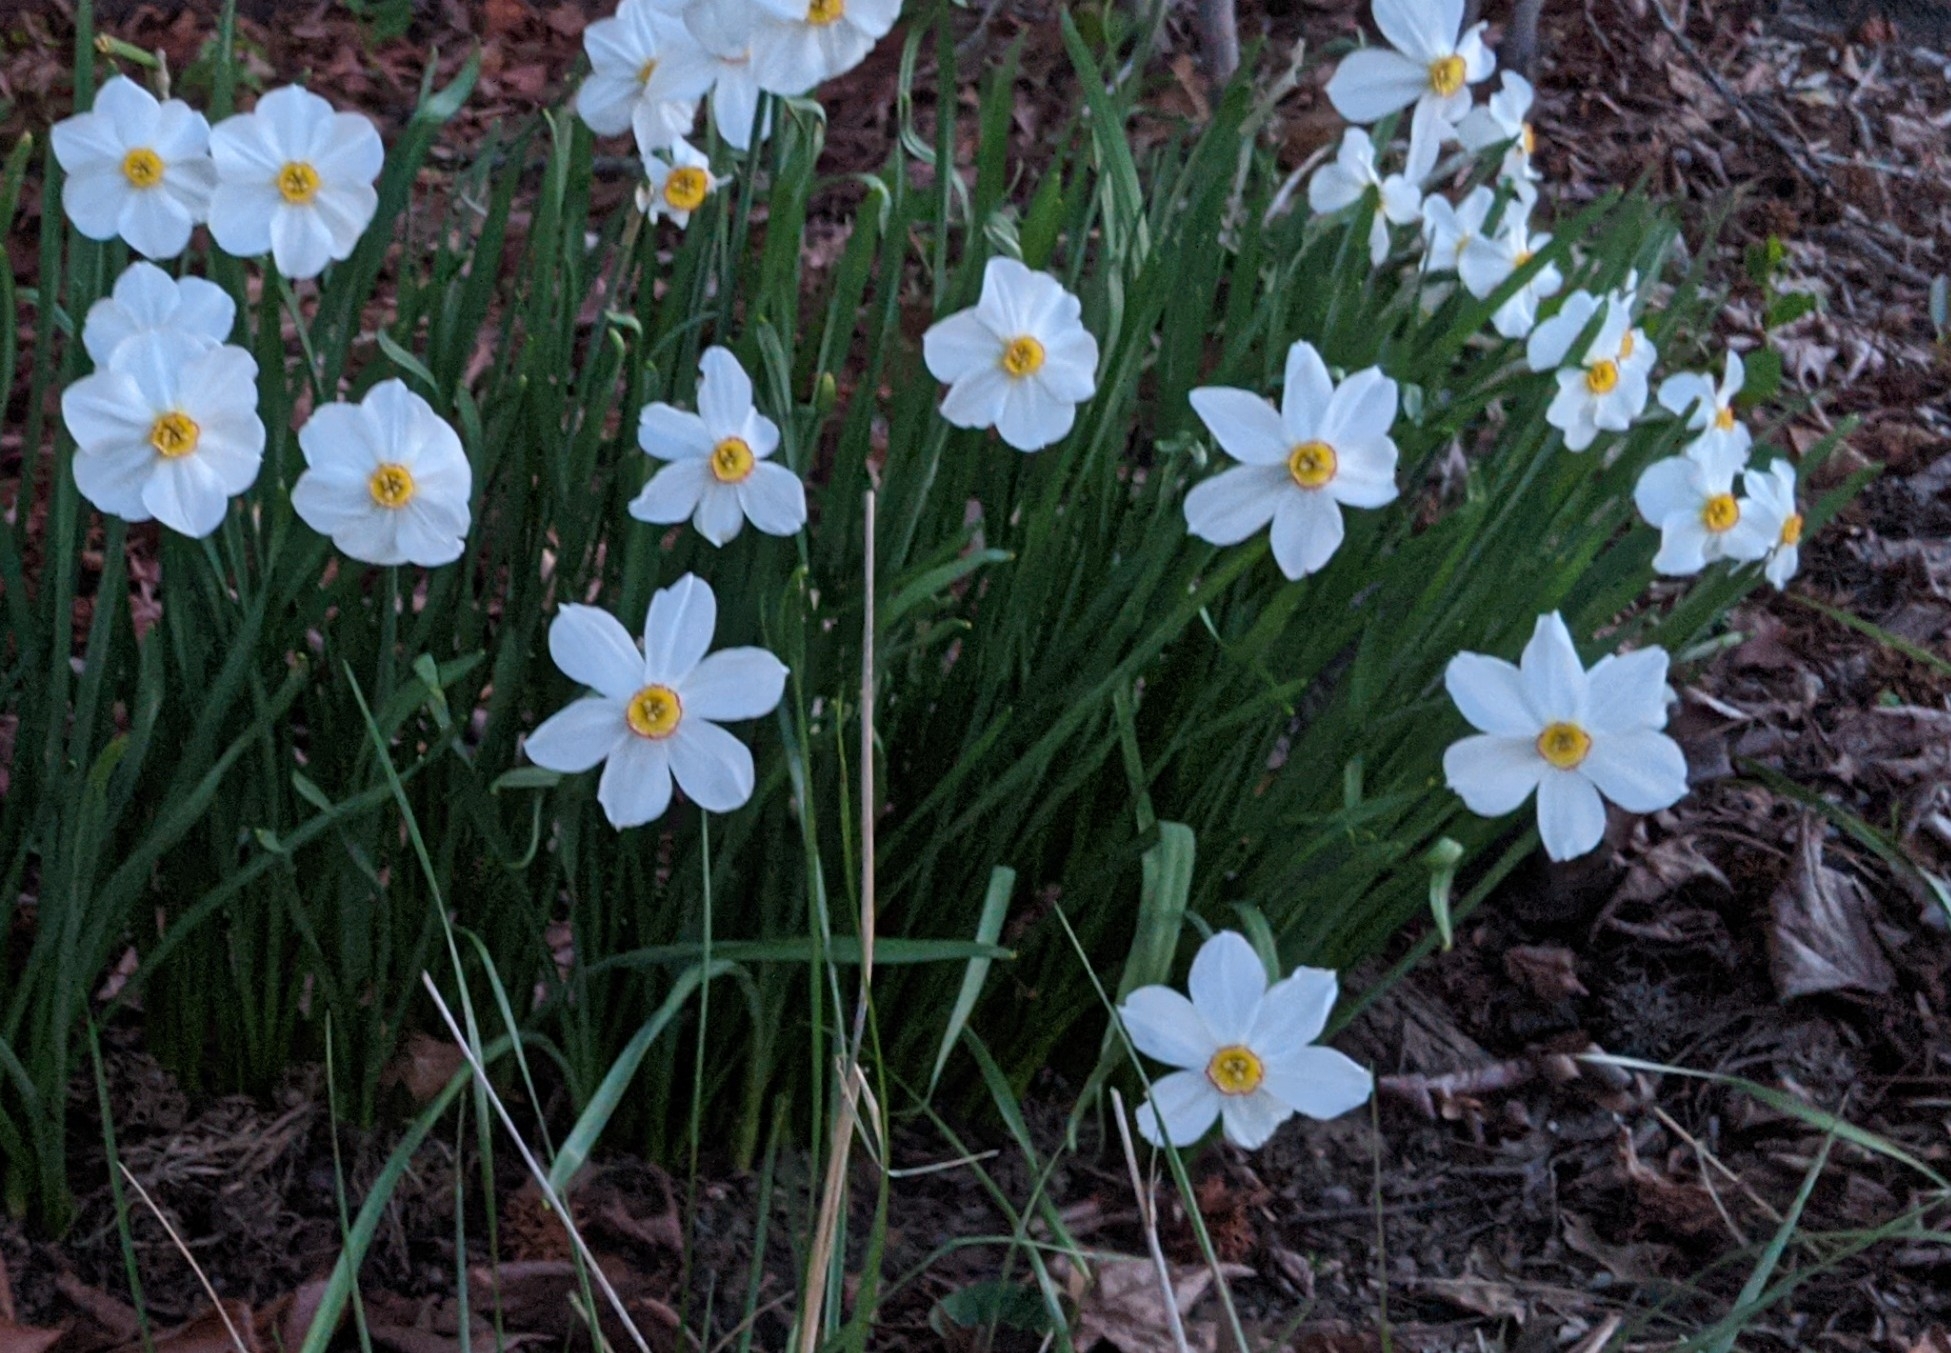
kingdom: Plantae
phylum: Tracheophyta
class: Liliopsida
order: Asparagales
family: Amaryllidaceae
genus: Narcissus
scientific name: Narcissus poeticus
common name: Pheasant's-eye daffodil
